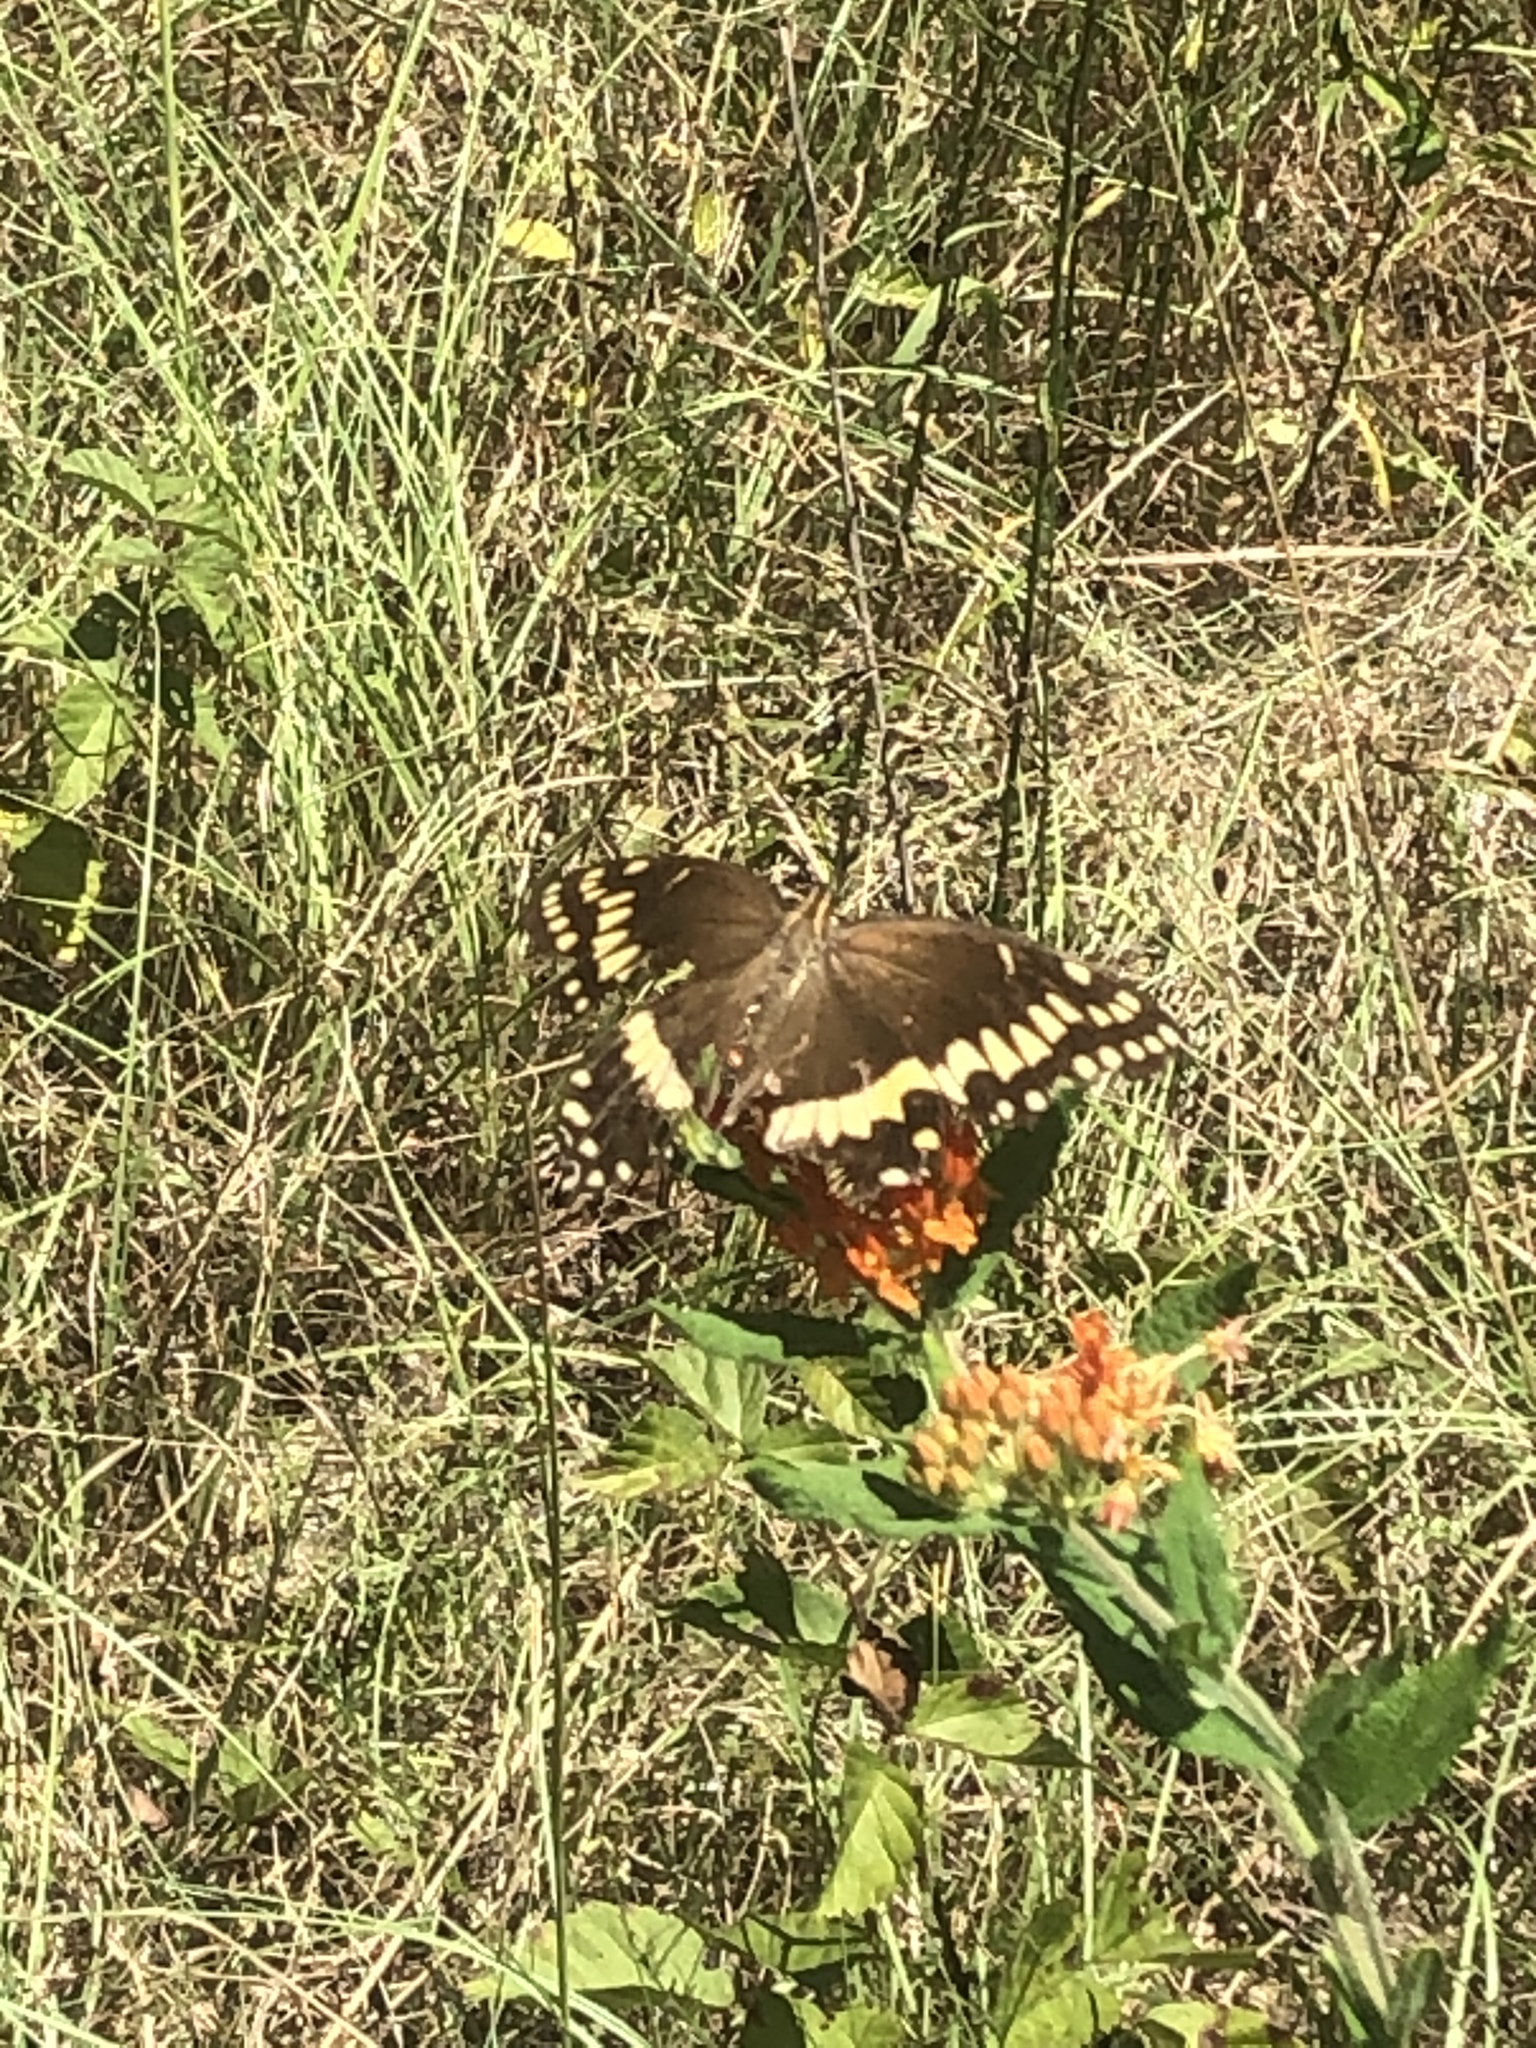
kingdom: Animalia
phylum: Arthropoda
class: Insecta
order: Lepidoptera
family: Papilionidae
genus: Papilio
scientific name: Papilio palamedes
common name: Palamedes swallowtail
